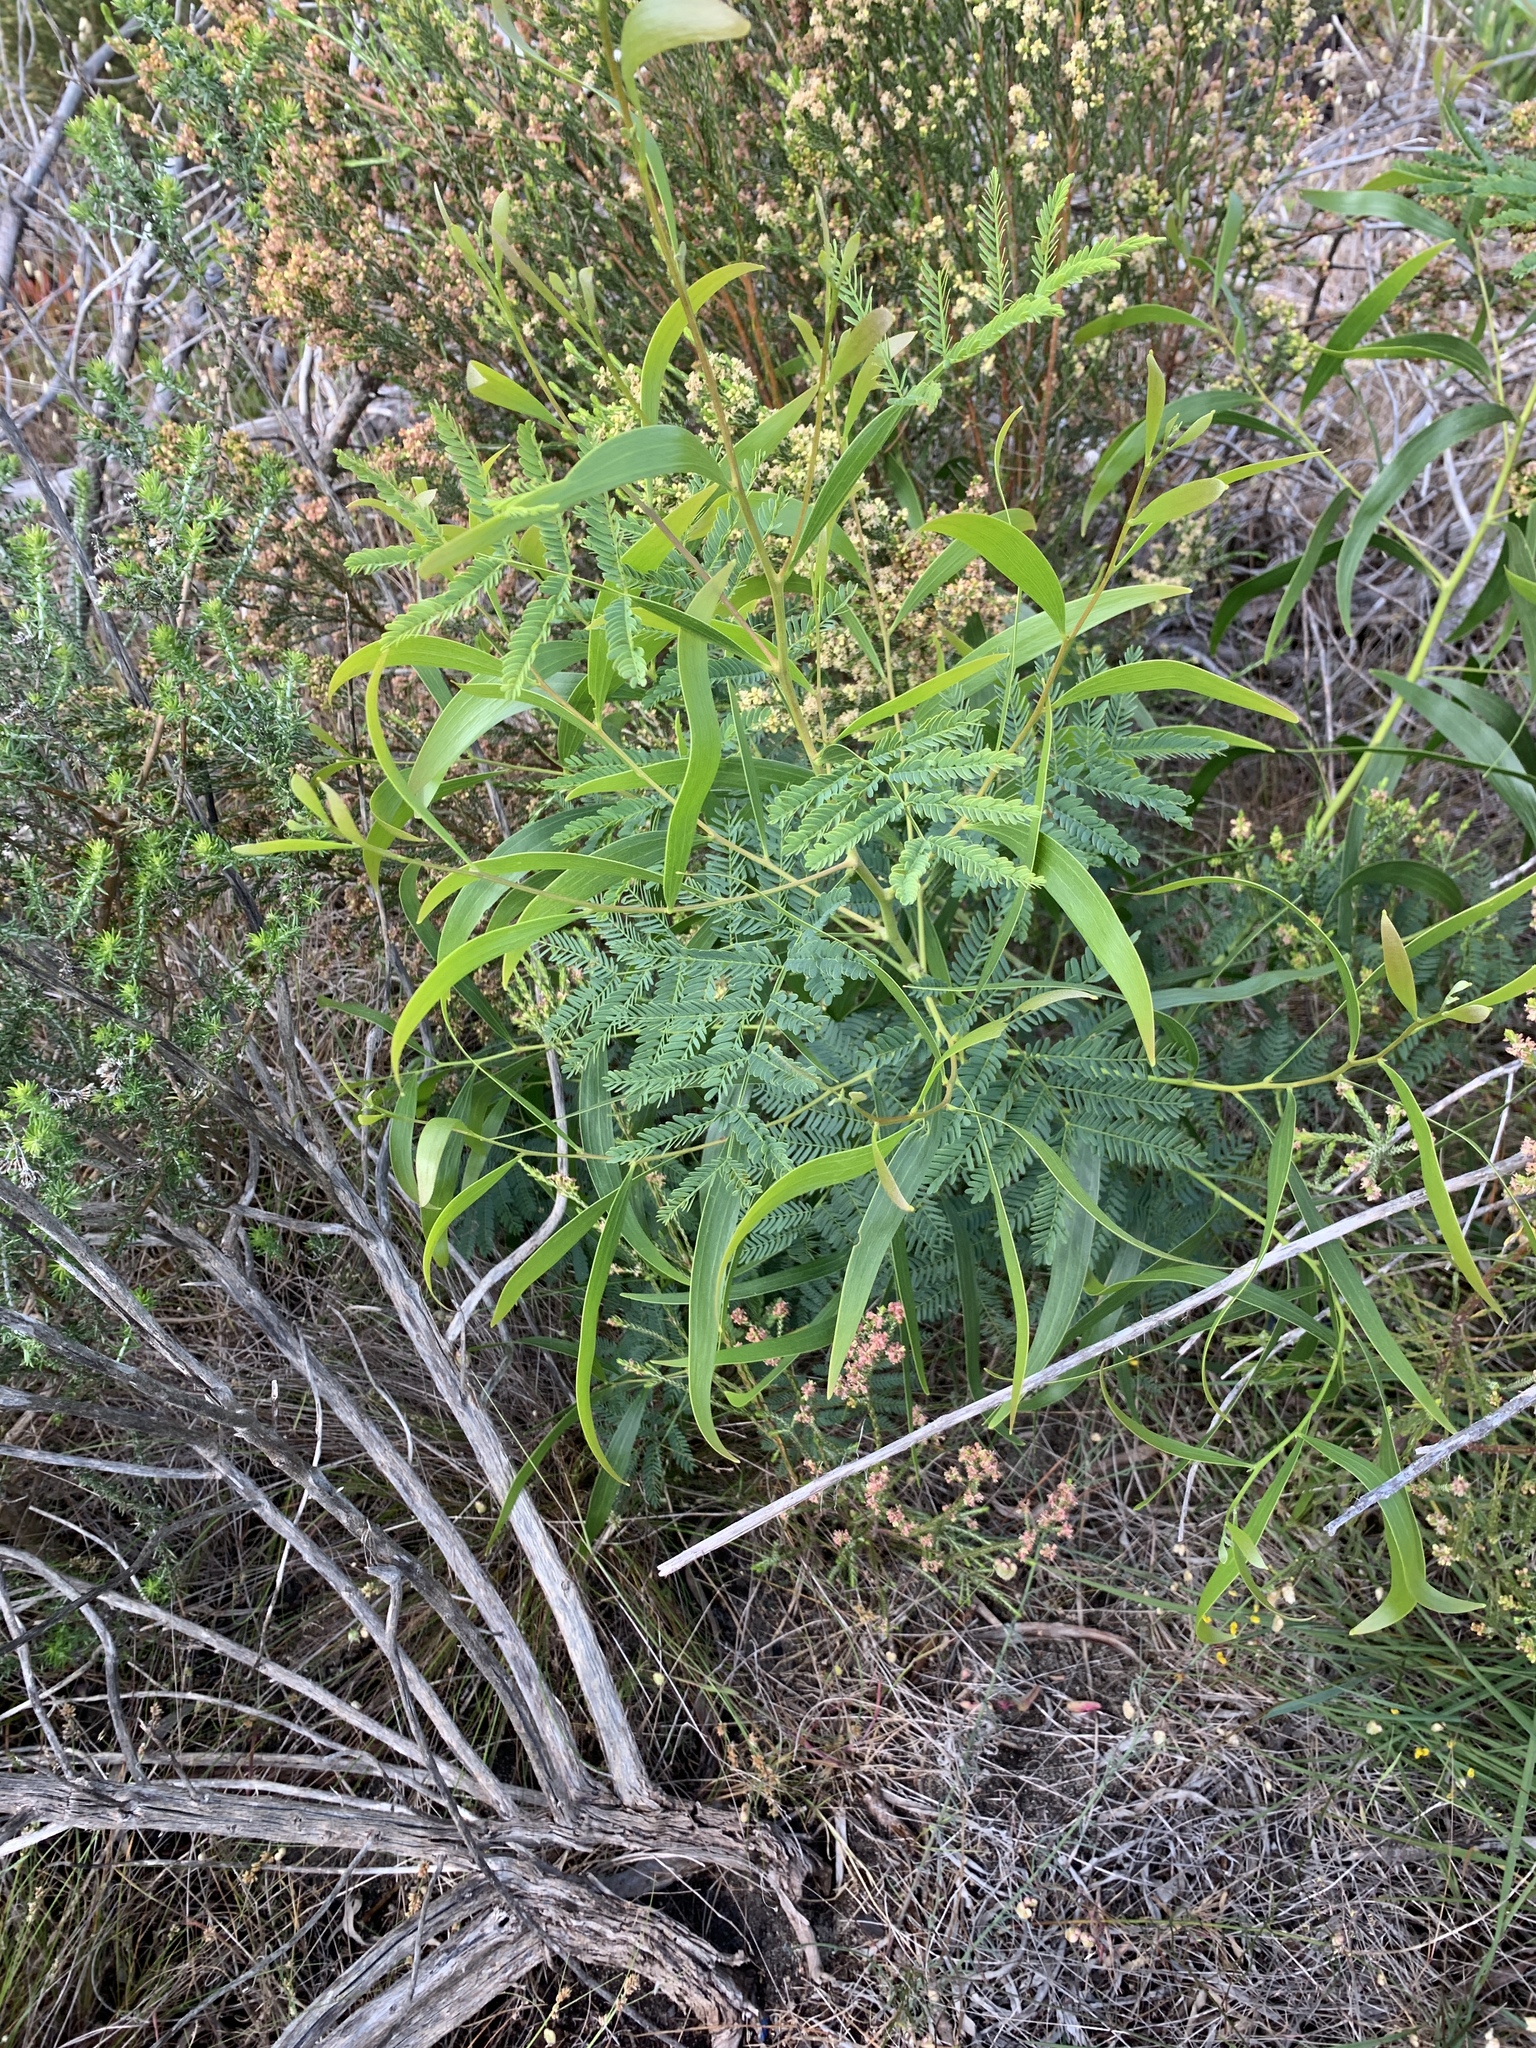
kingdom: Plantae
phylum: Tracheophyta
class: Magnoliopsida
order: Fabales
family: Fabaceae
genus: Acacia
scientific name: Acacia implexa
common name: Black wattle
